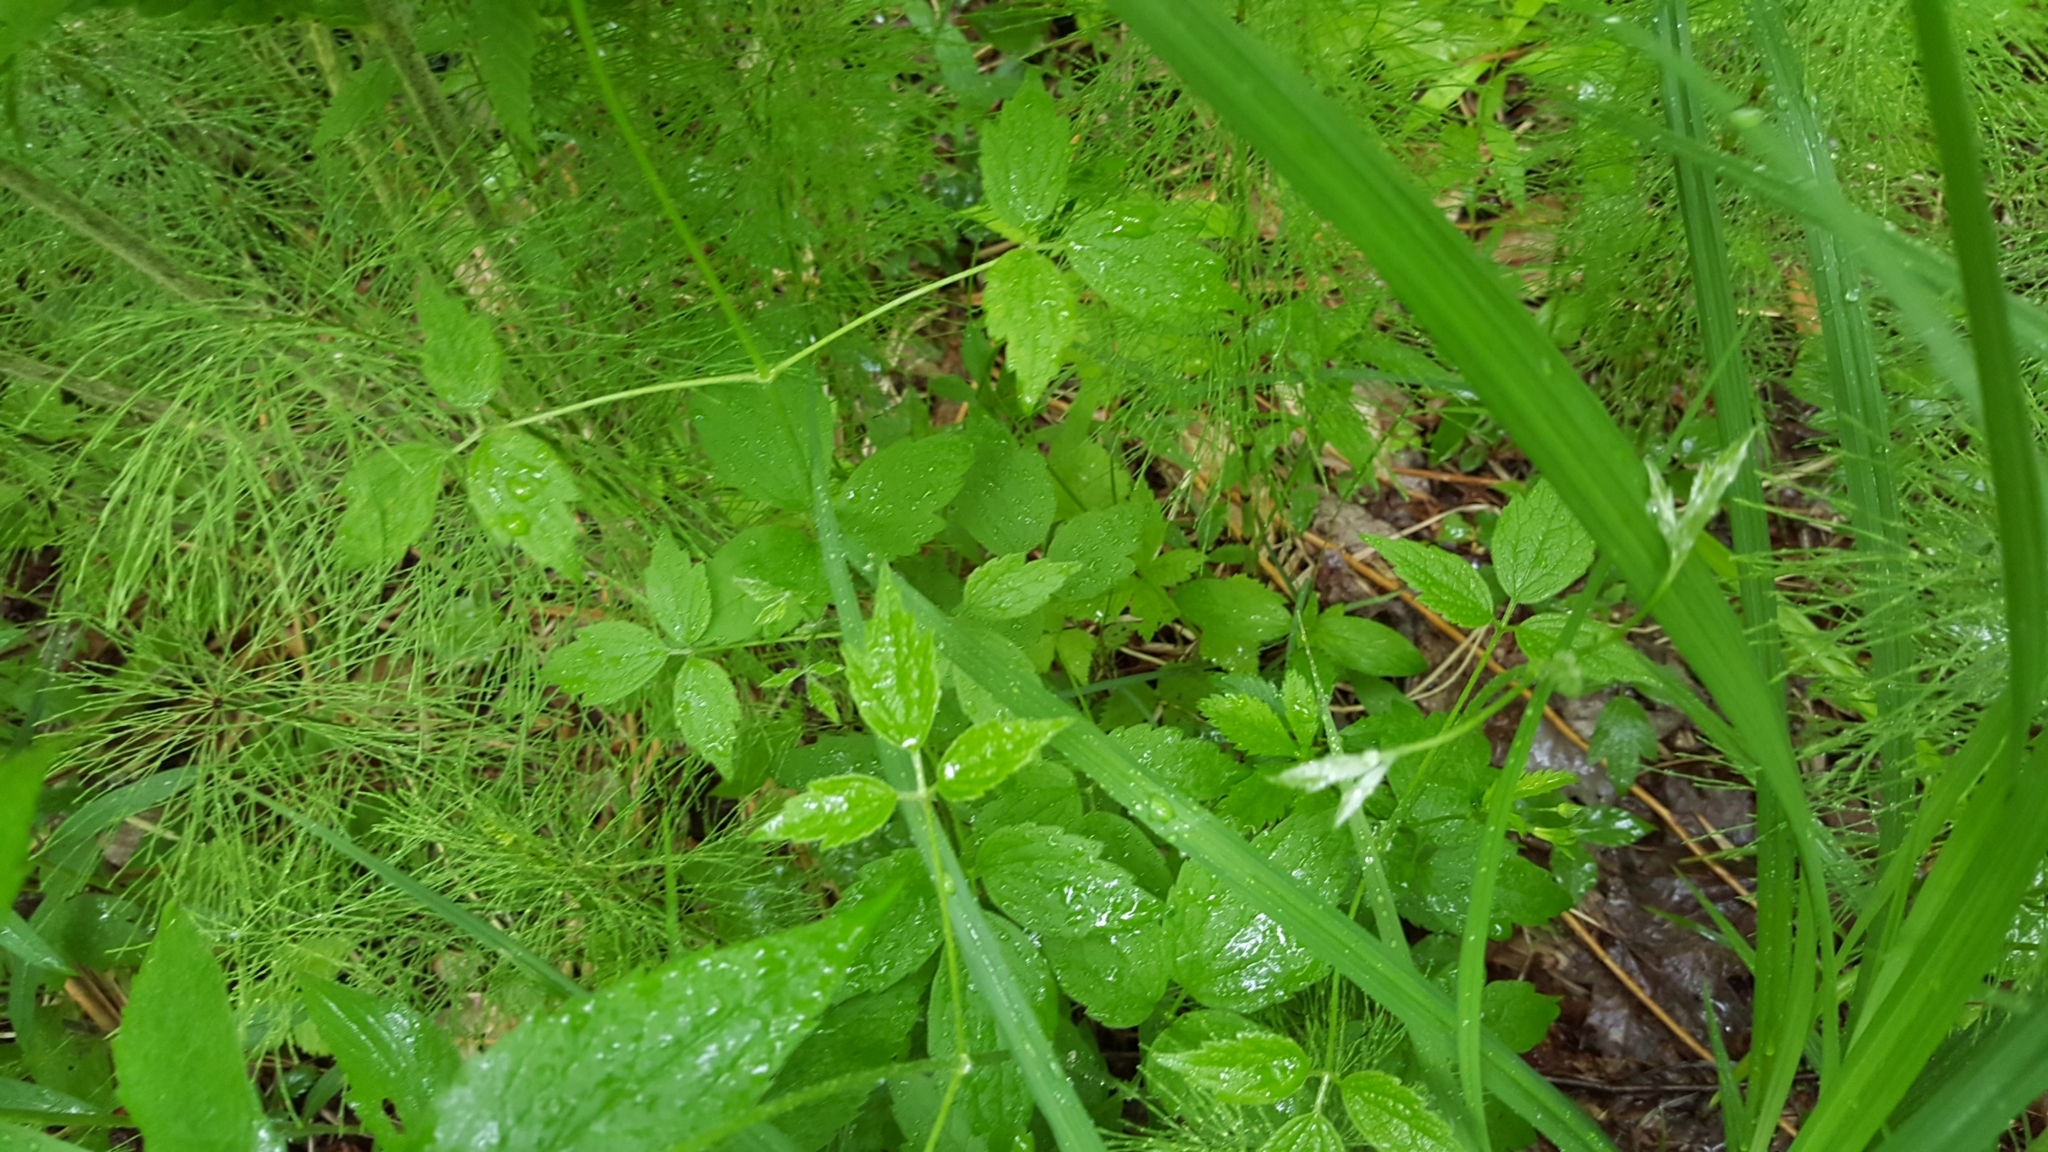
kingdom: Plantae
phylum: Tracheophyta
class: Magnoliopsida
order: Ranunculales
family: Ranunculaceae
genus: Clematis
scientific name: Clematis virginiana
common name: Virgin's-bower
